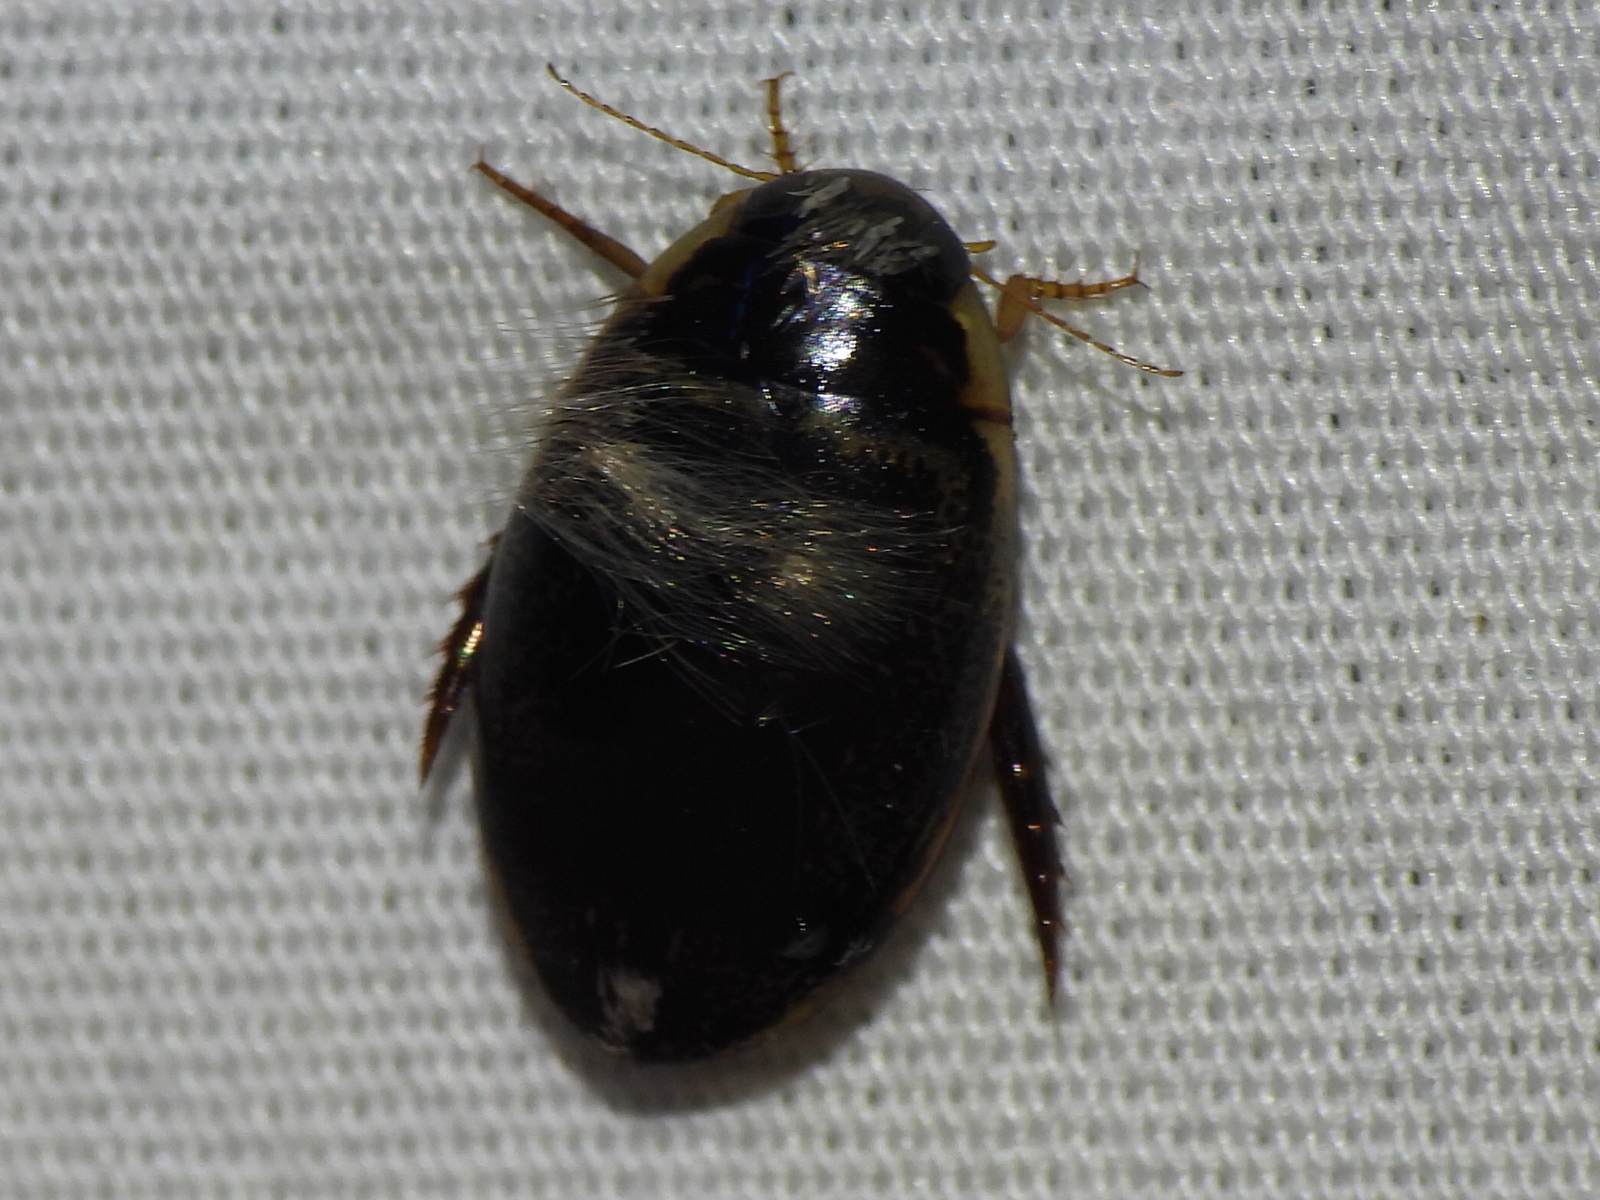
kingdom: Animalia
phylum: Arthropoda
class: Insecta
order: Coleoptera
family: Dytiscidae
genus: Thermonectus
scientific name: Thermonectus basillaris
